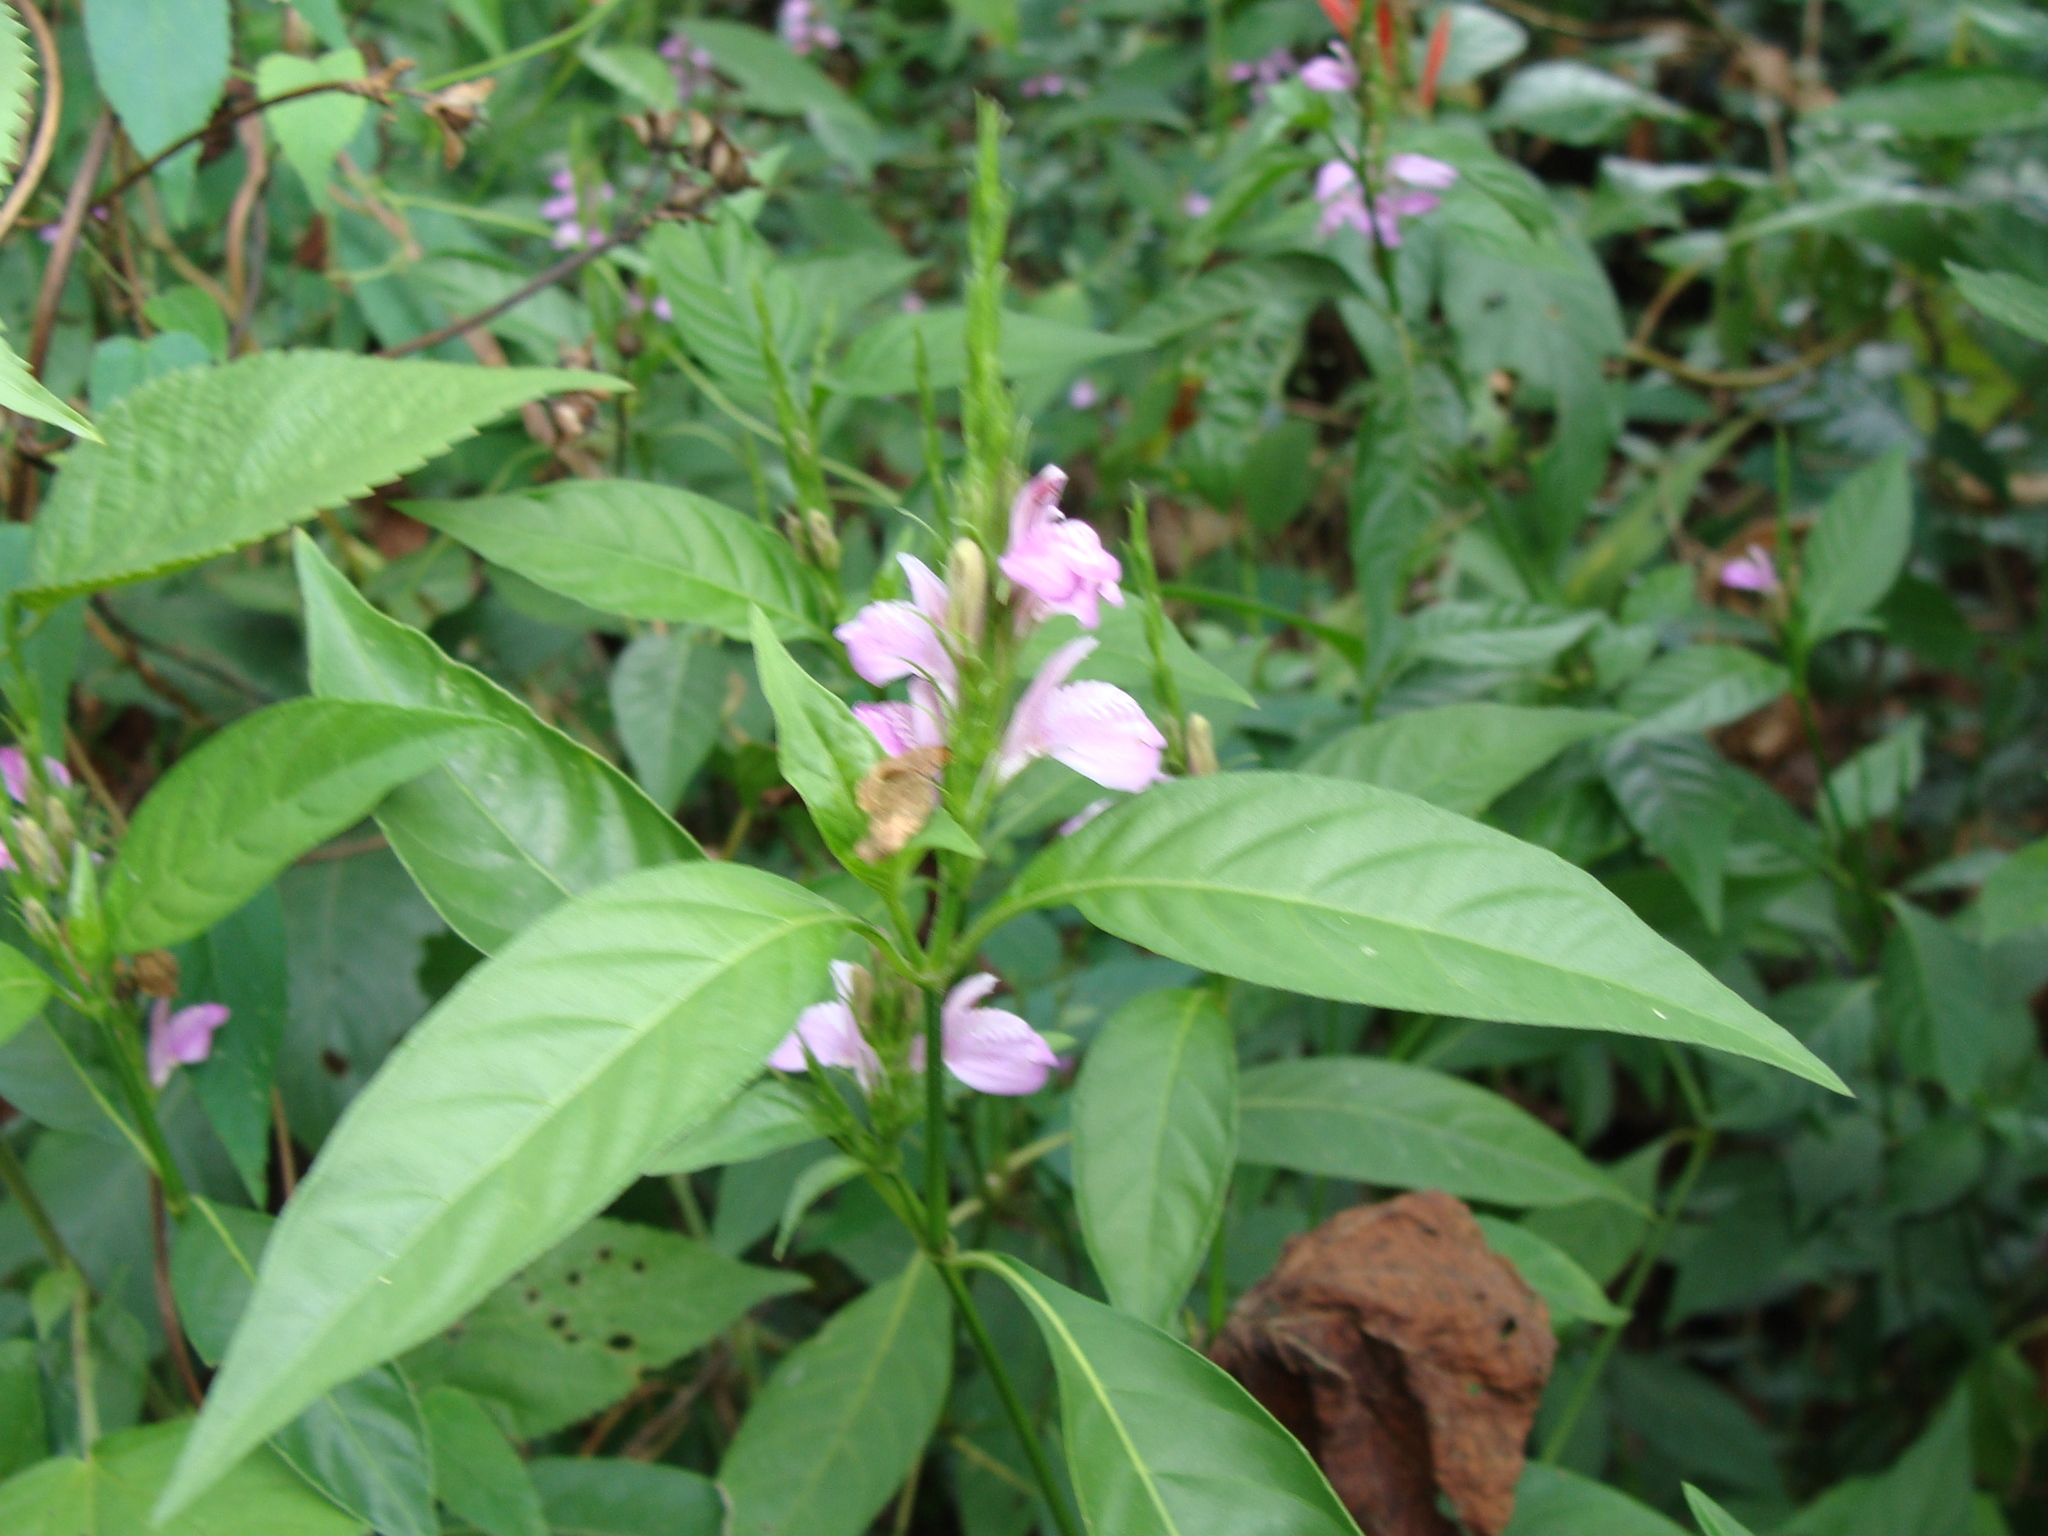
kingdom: Plantae
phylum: Tracheophyta
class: Magnoliopsida
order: Lamiales
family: Acanthaceae
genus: Dianthera
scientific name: Dianthera breviflora
